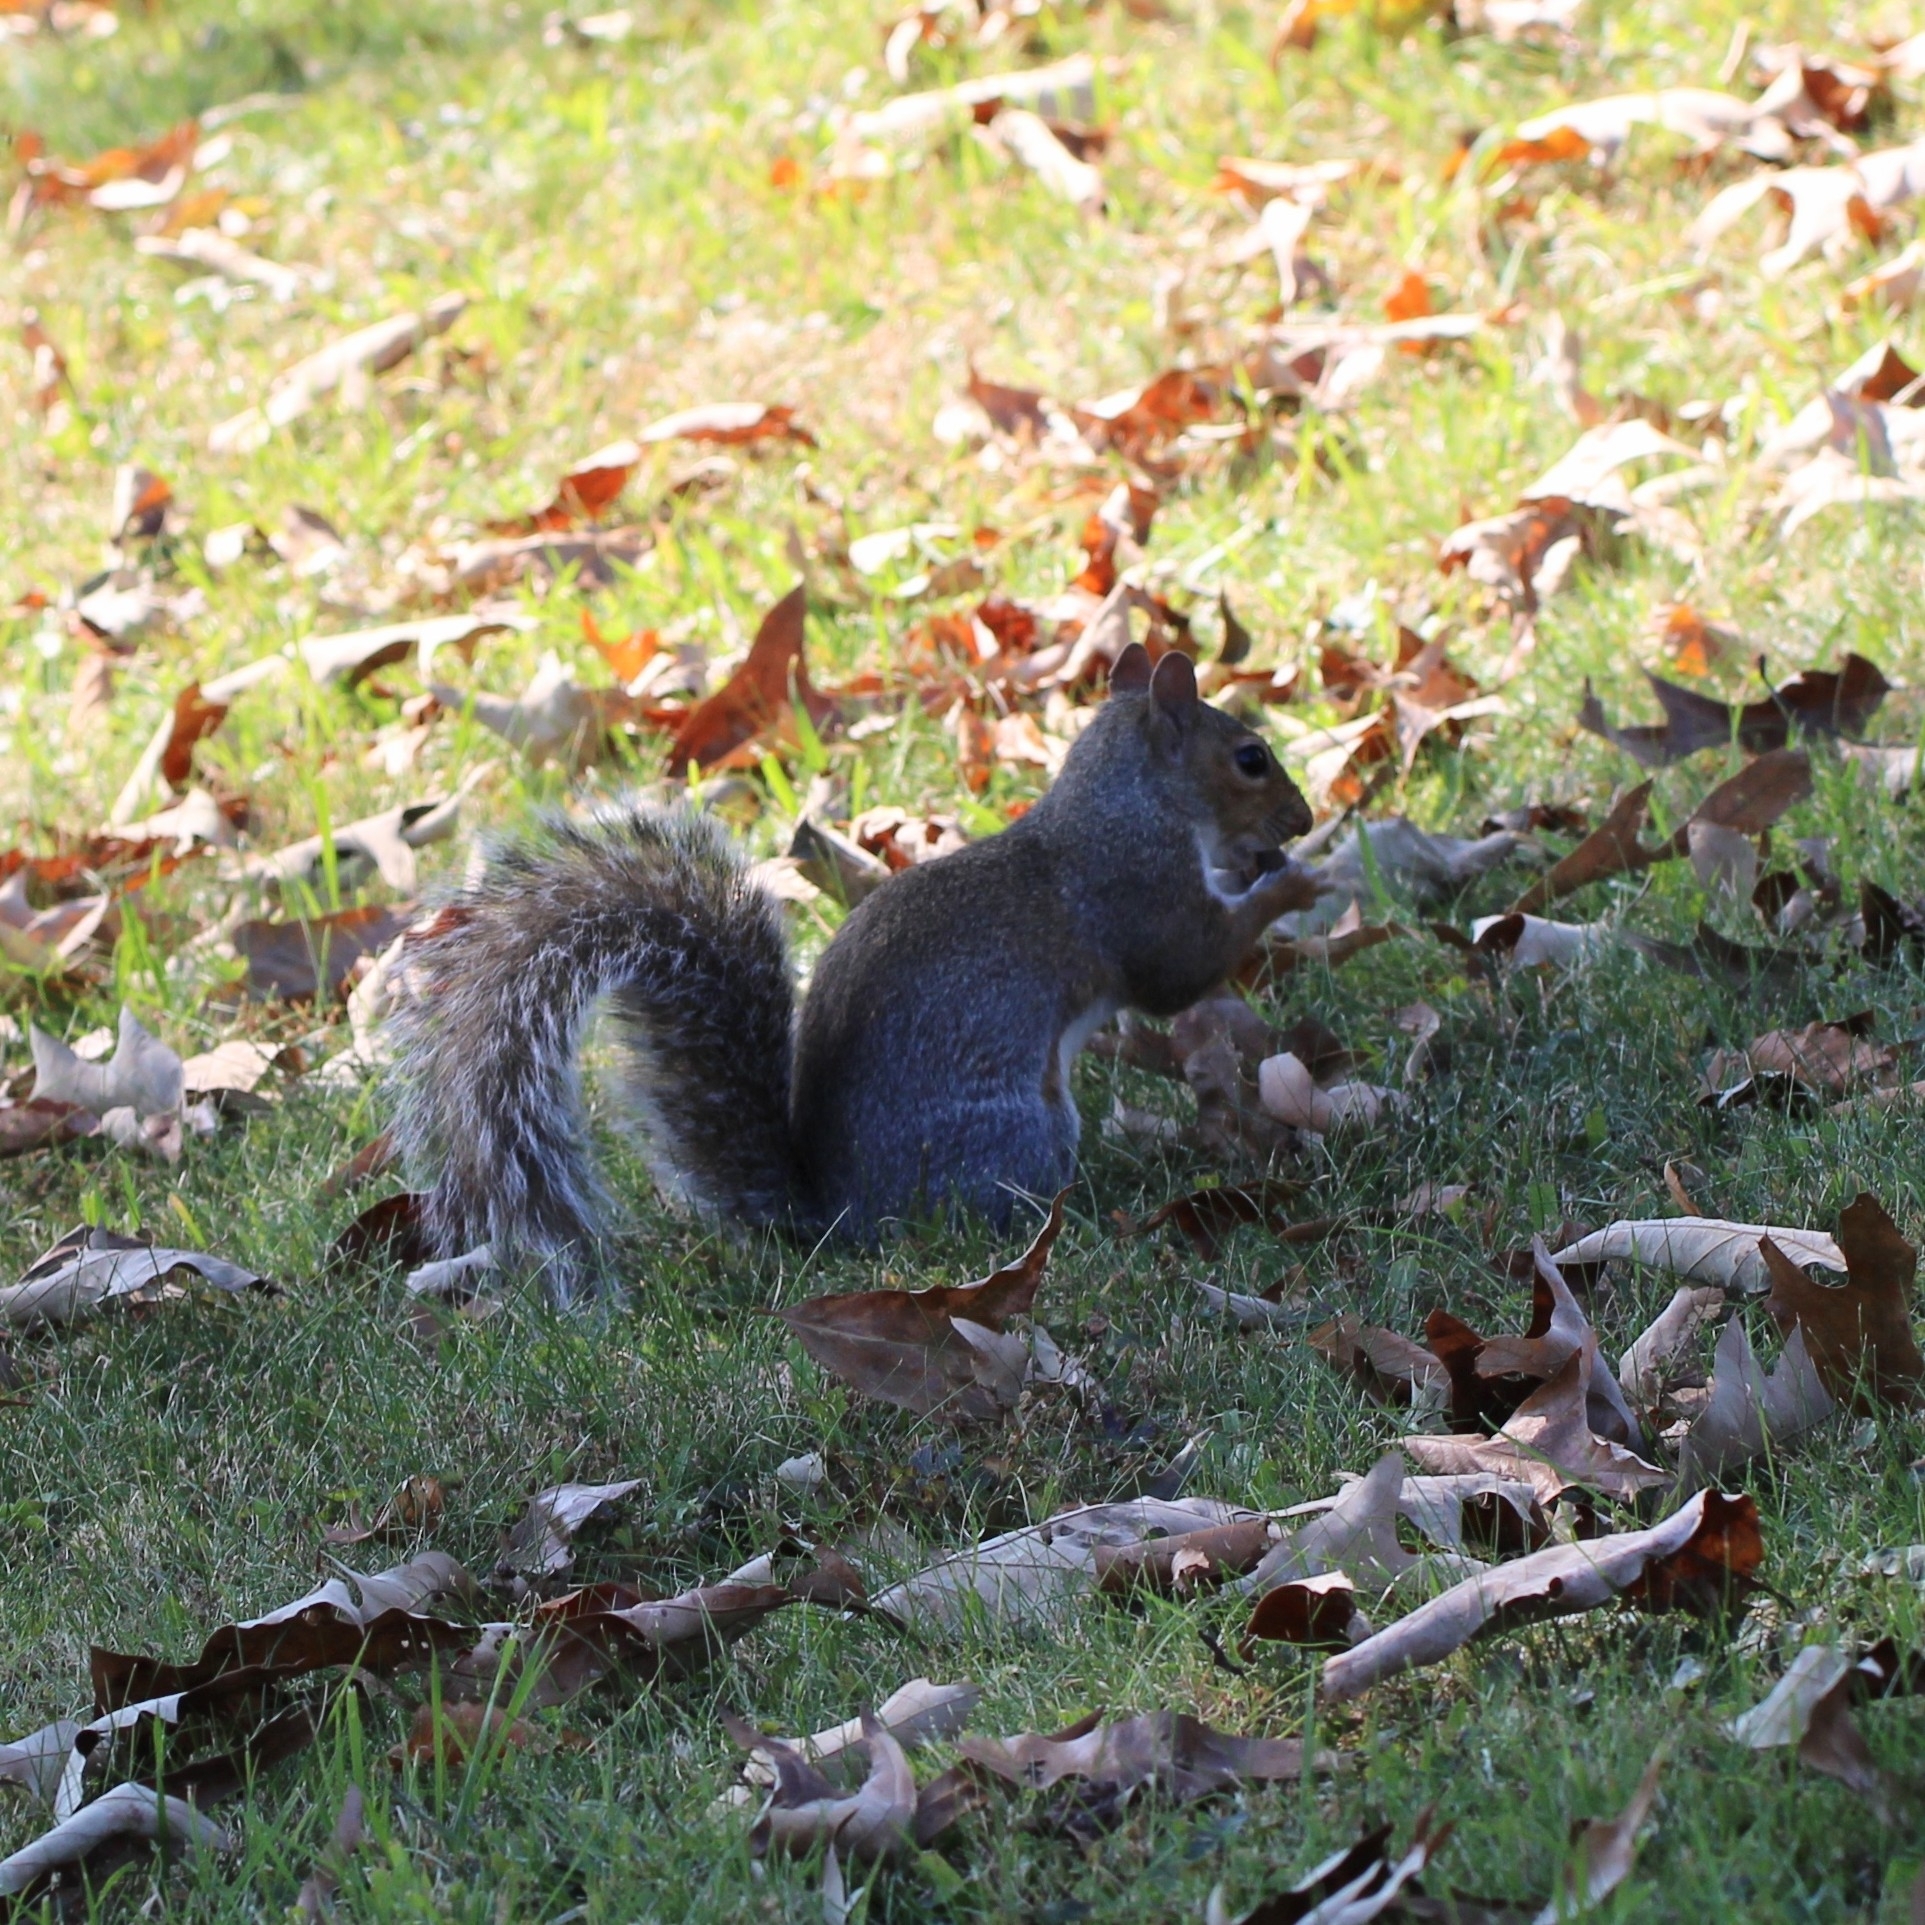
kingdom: Animalia
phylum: Chordata
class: Mammalia
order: Rodentia
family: Sciuridae
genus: Sciurus
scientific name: Sciurus carolinensis
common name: Eastern gray squirrel
